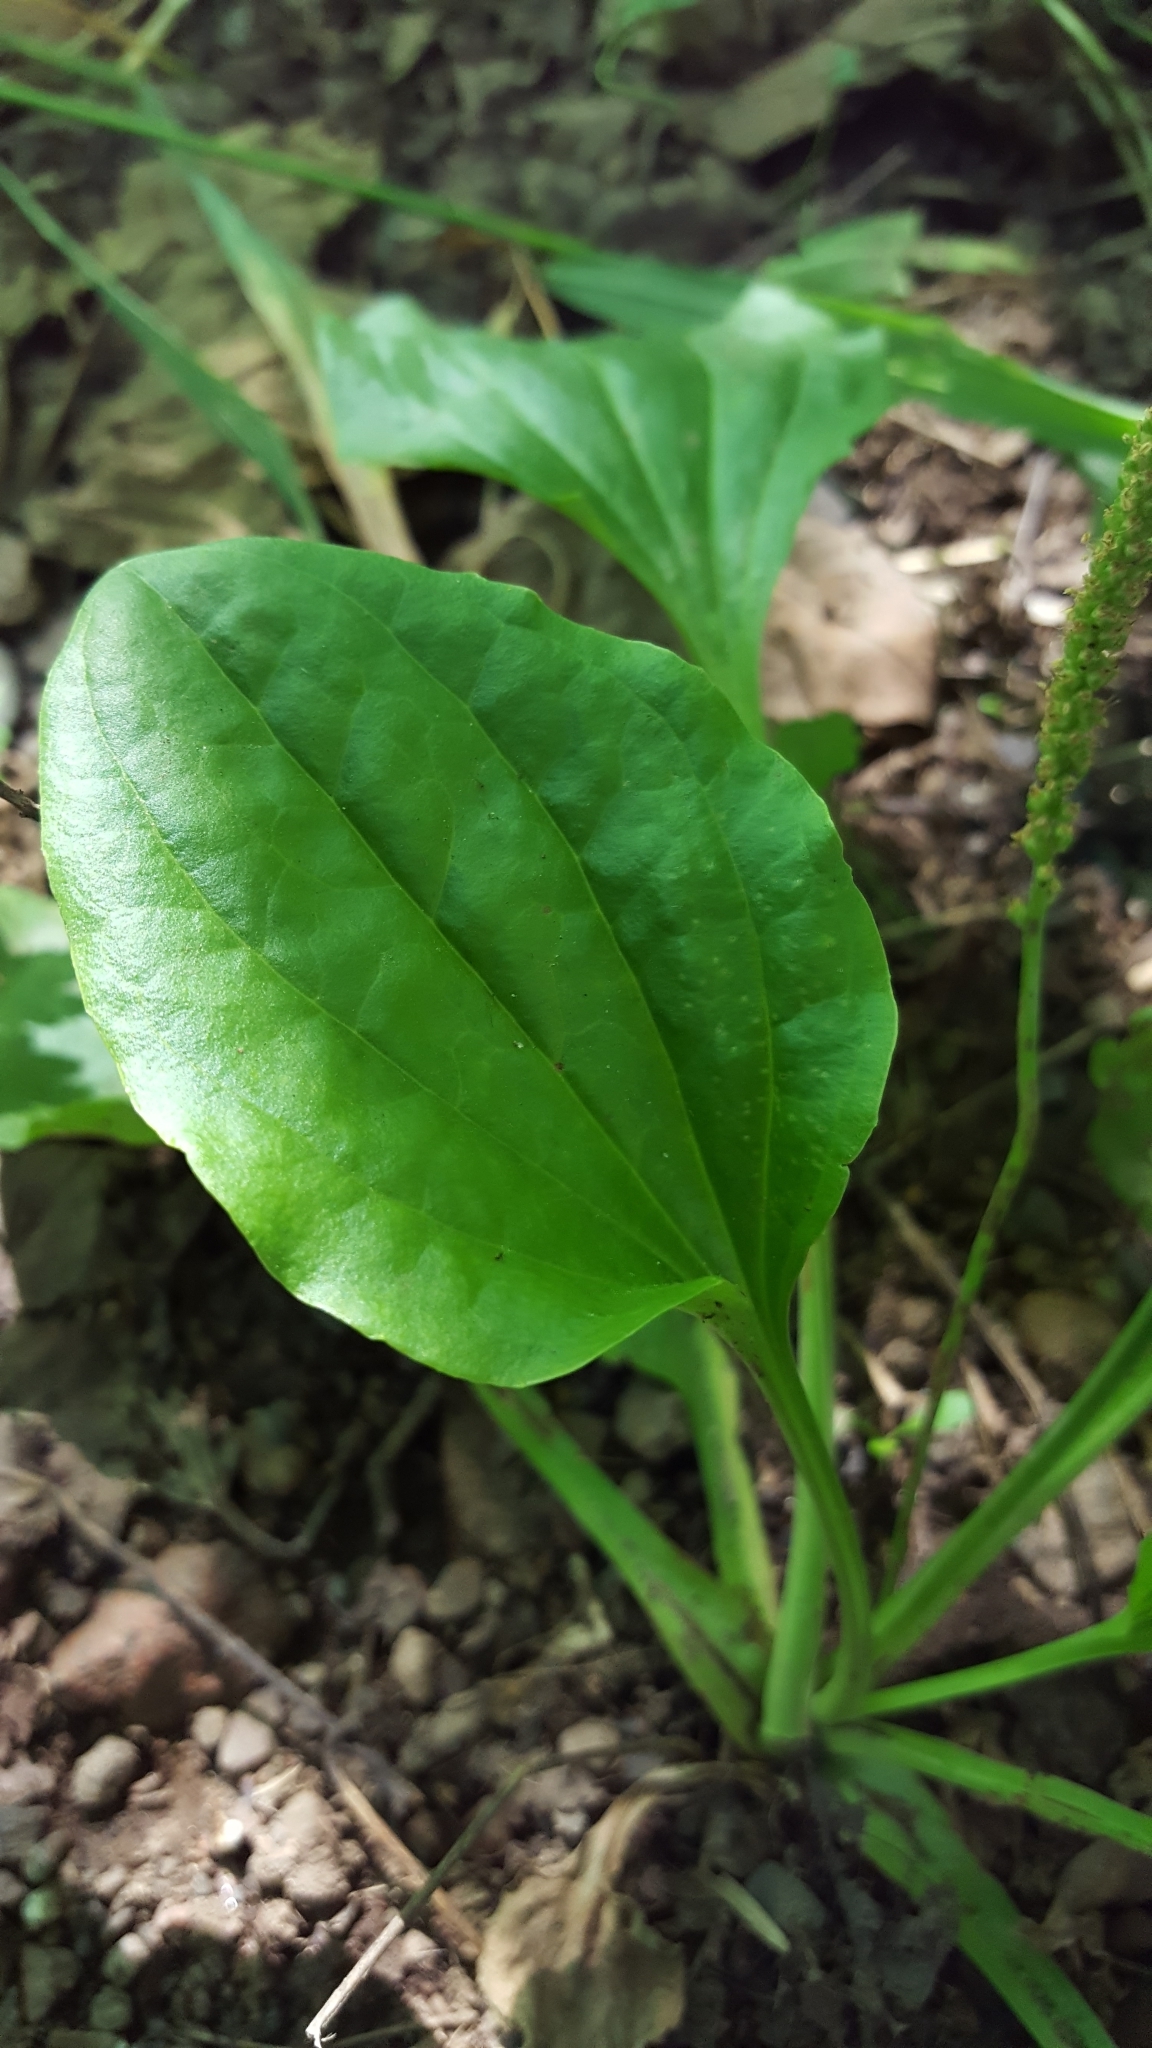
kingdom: Plantae
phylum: Tracheophyta
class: Magnoliopsida
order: Lamiales
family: Plantaginaceae
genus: Plantago
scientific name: Plantago major
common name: Common plantain
